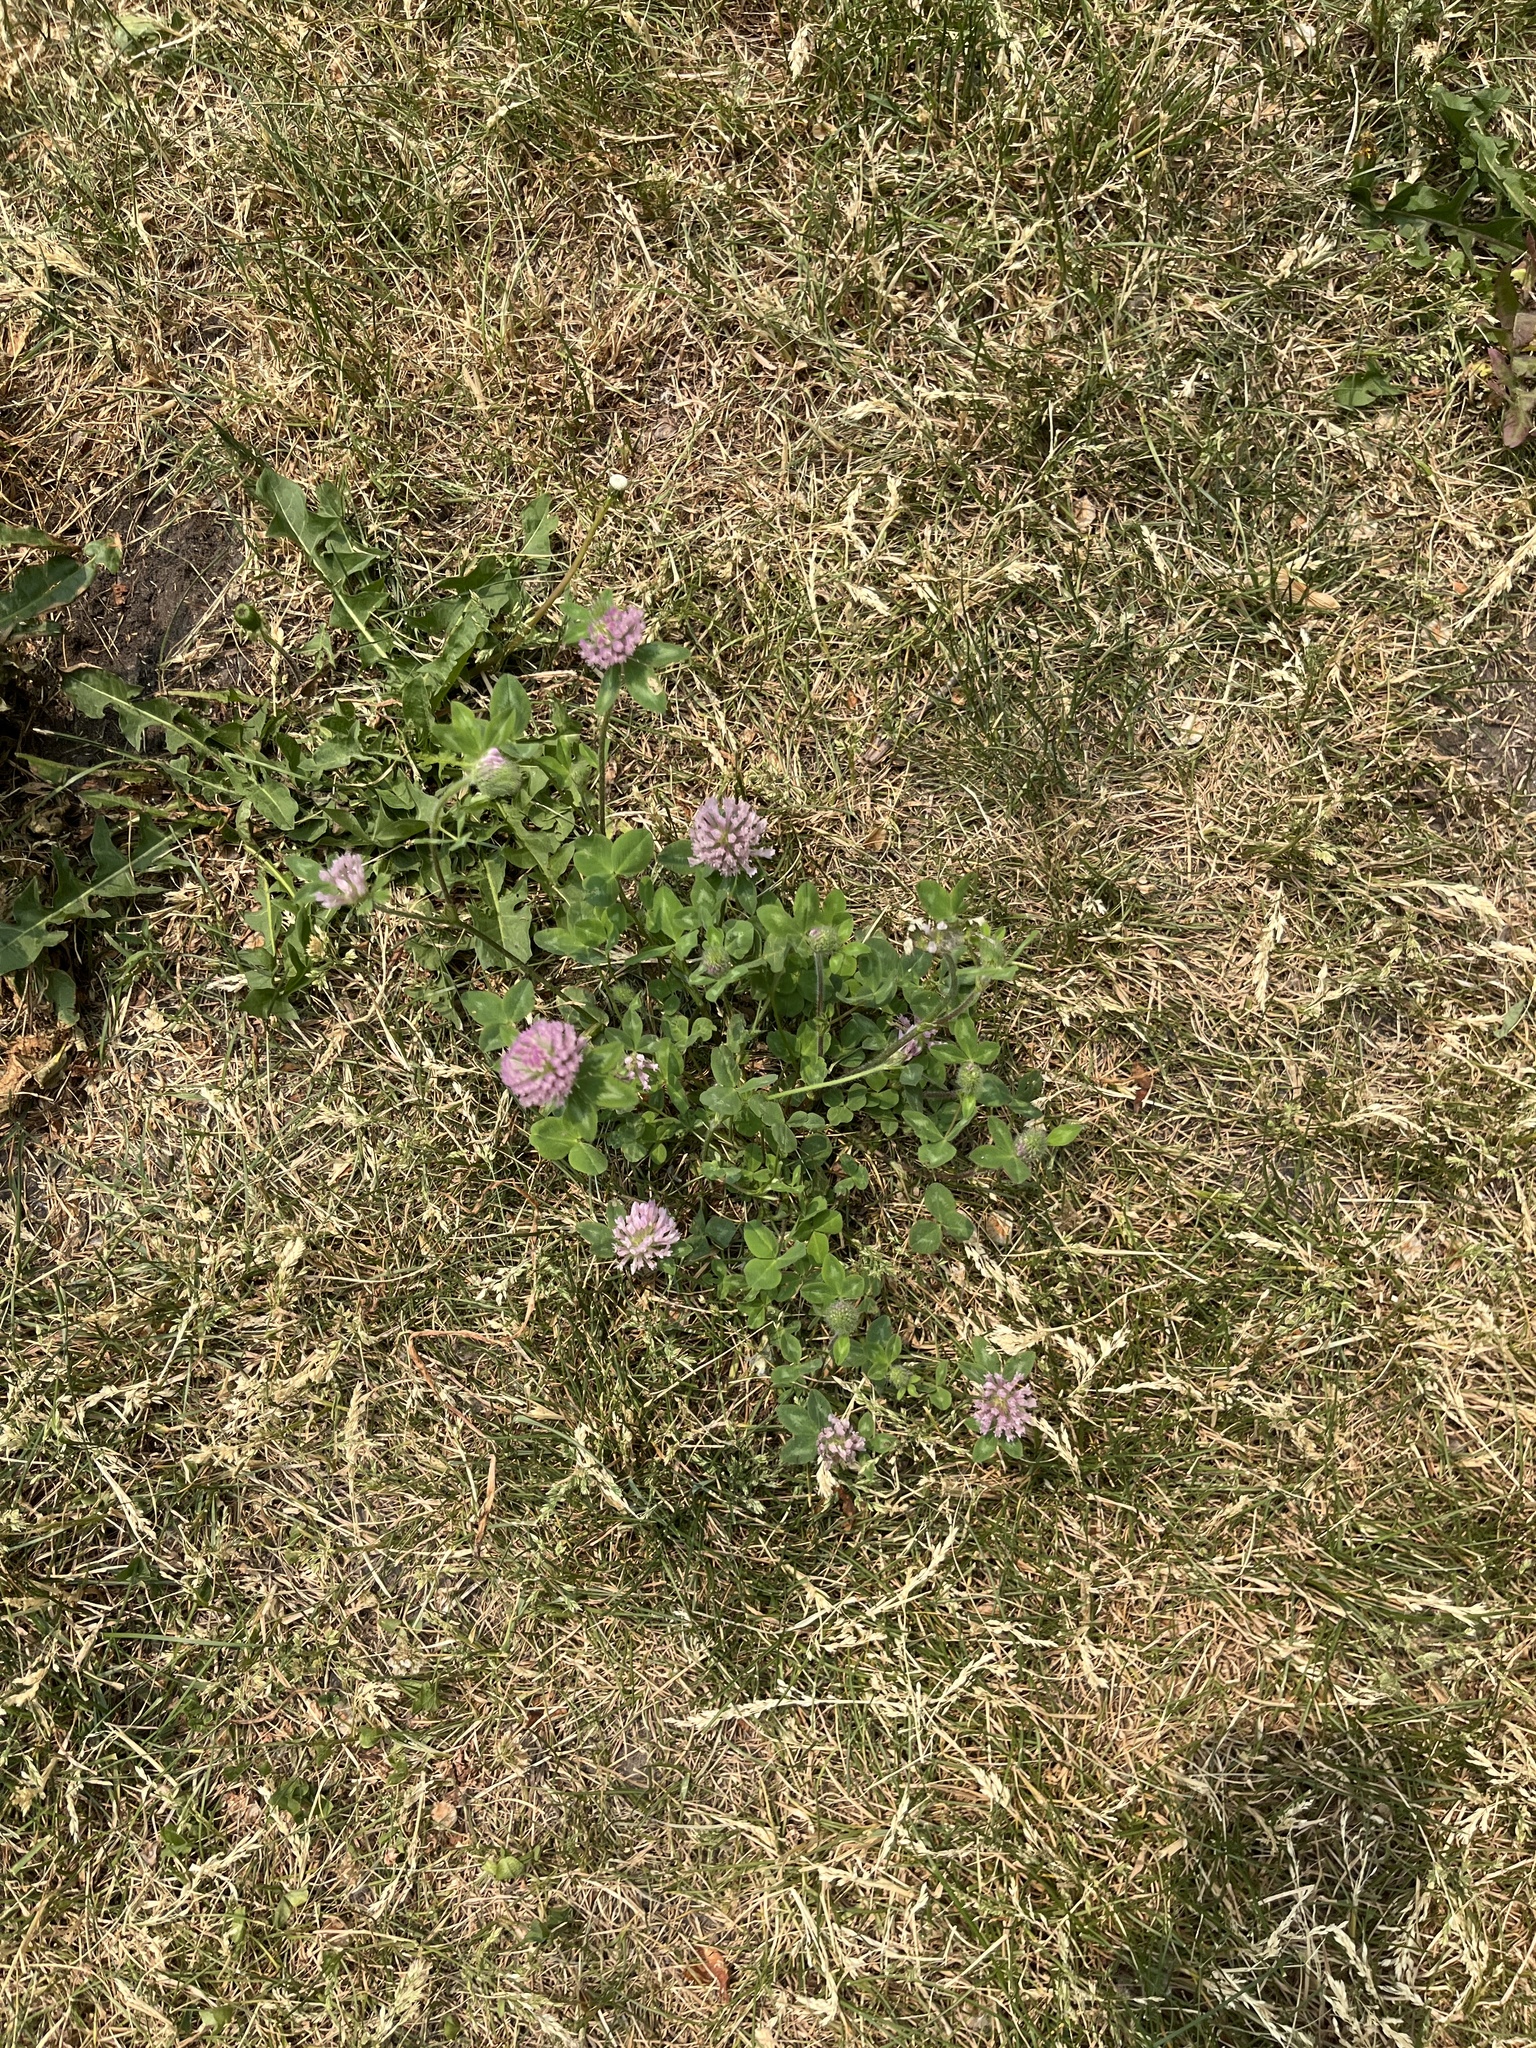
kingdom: Plantae
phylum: Tracheophyta
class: Magnoliopsida
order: Fabales
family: Fabaceae
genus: Trifolium
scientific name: Trifolium pratense
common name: Red clover
